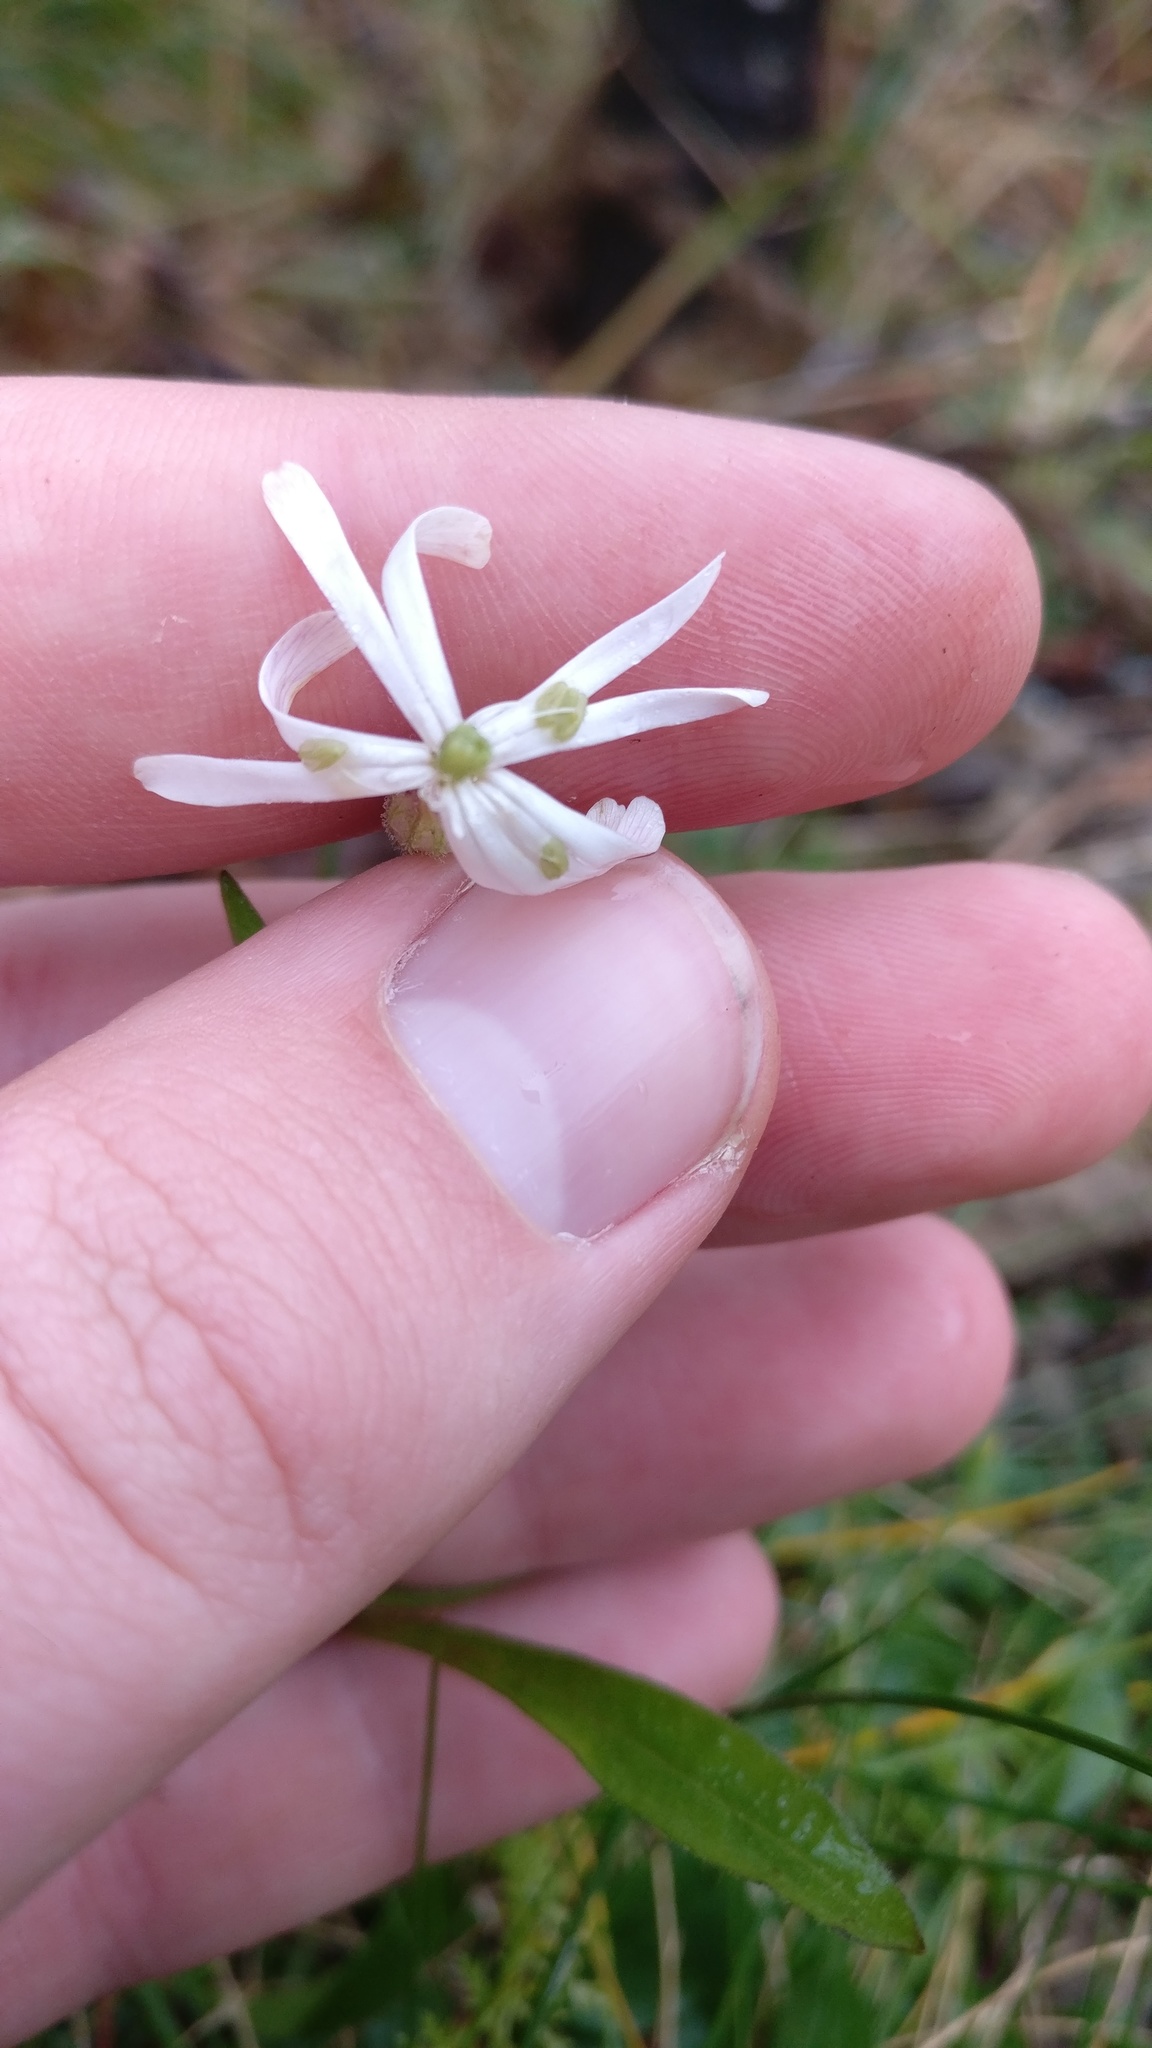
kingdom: Plantae
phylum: Tracheophyta
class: Magnoliopsida
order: Caryophyllales
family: Caryophyllaceae
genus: Silene
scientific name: Silene nutans
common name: Nottingham catchfly
